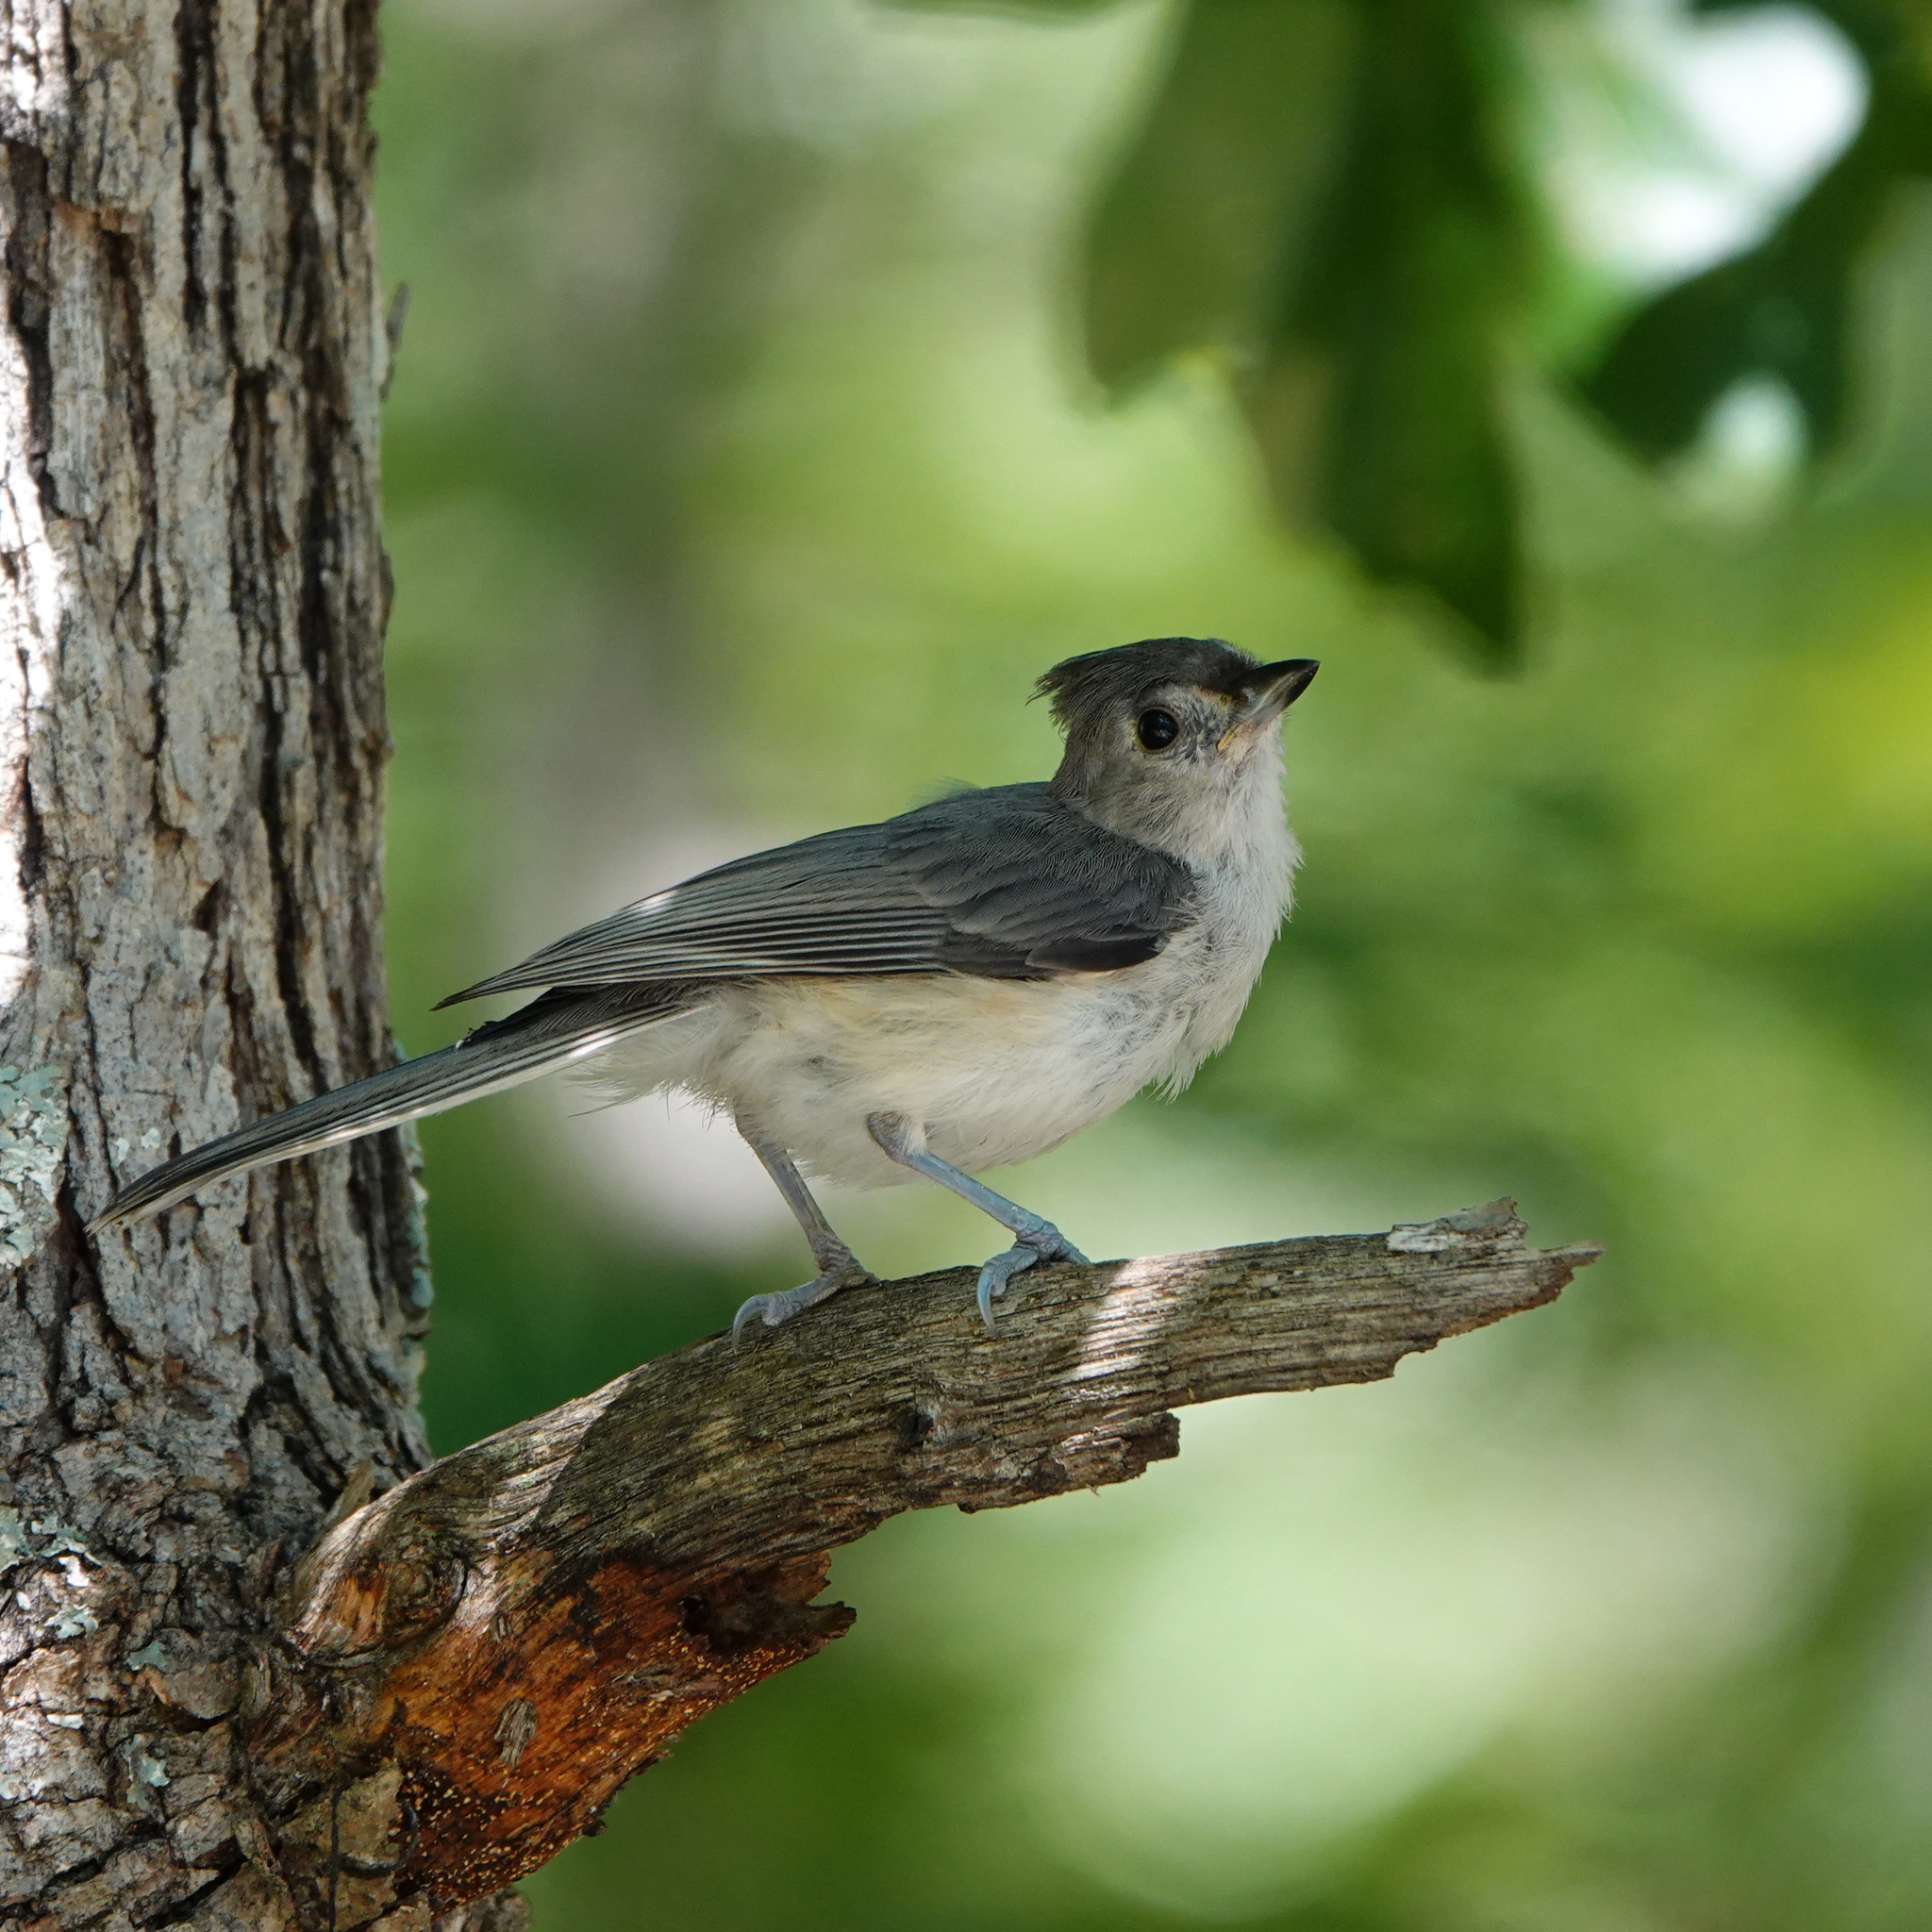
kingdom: Animalia
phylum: Chordata
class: Aves
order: Passeriformes
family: Paridae
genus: Baeolophus
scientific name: Baeolophus bicolor
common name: Tufted titmouse
